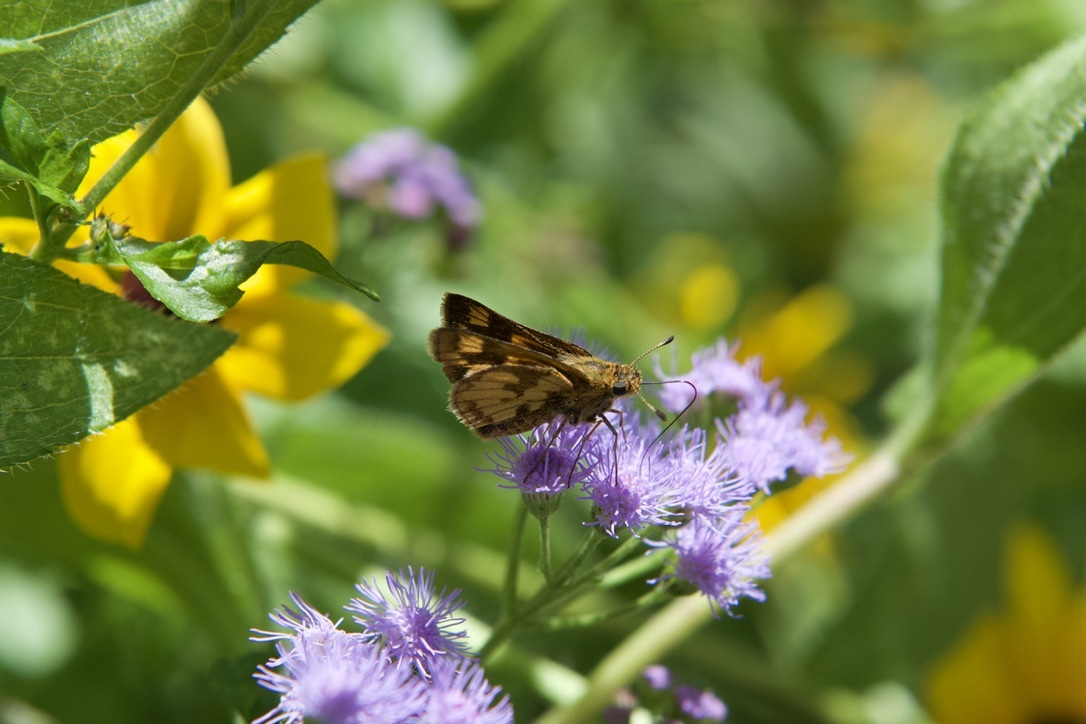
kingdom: Animalia
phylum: Arthropoda
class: Insecta
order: Lepidoptera
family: Hesperiidae
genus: Polites
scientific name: Polites coras
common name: Peck's skipper
